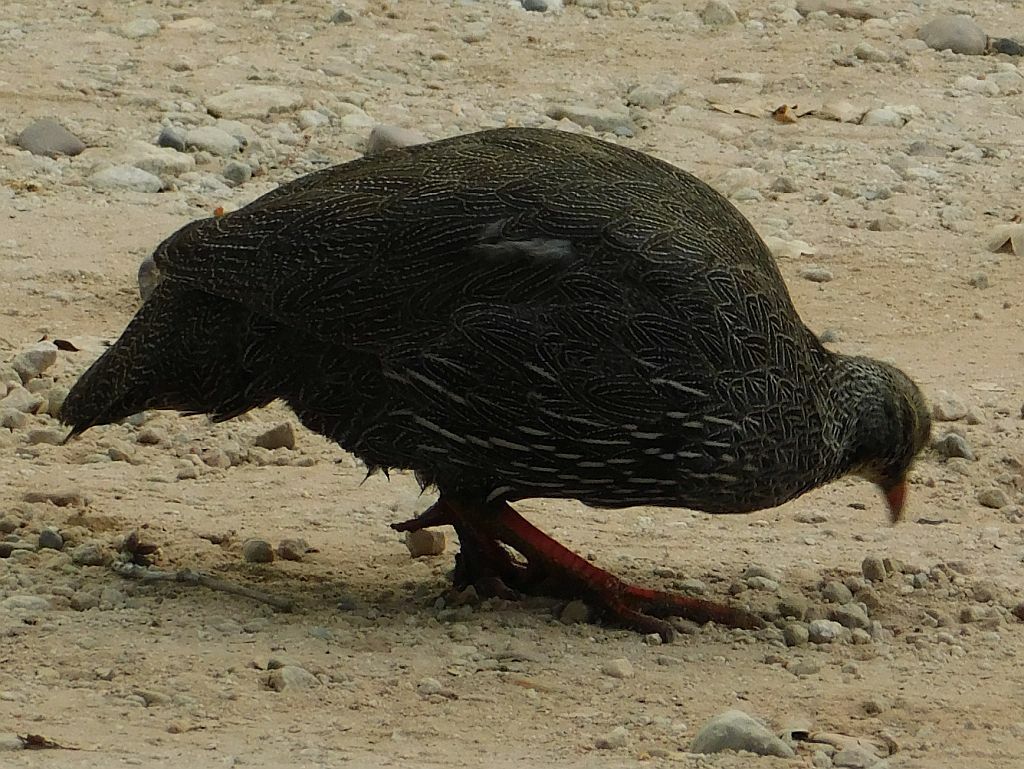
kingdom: Animalia
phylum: Chordata
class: Aves
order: Galliformes
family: Phasianidae
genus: Pternistis
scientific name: Pternistis capensis
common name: Cape spurfowl
